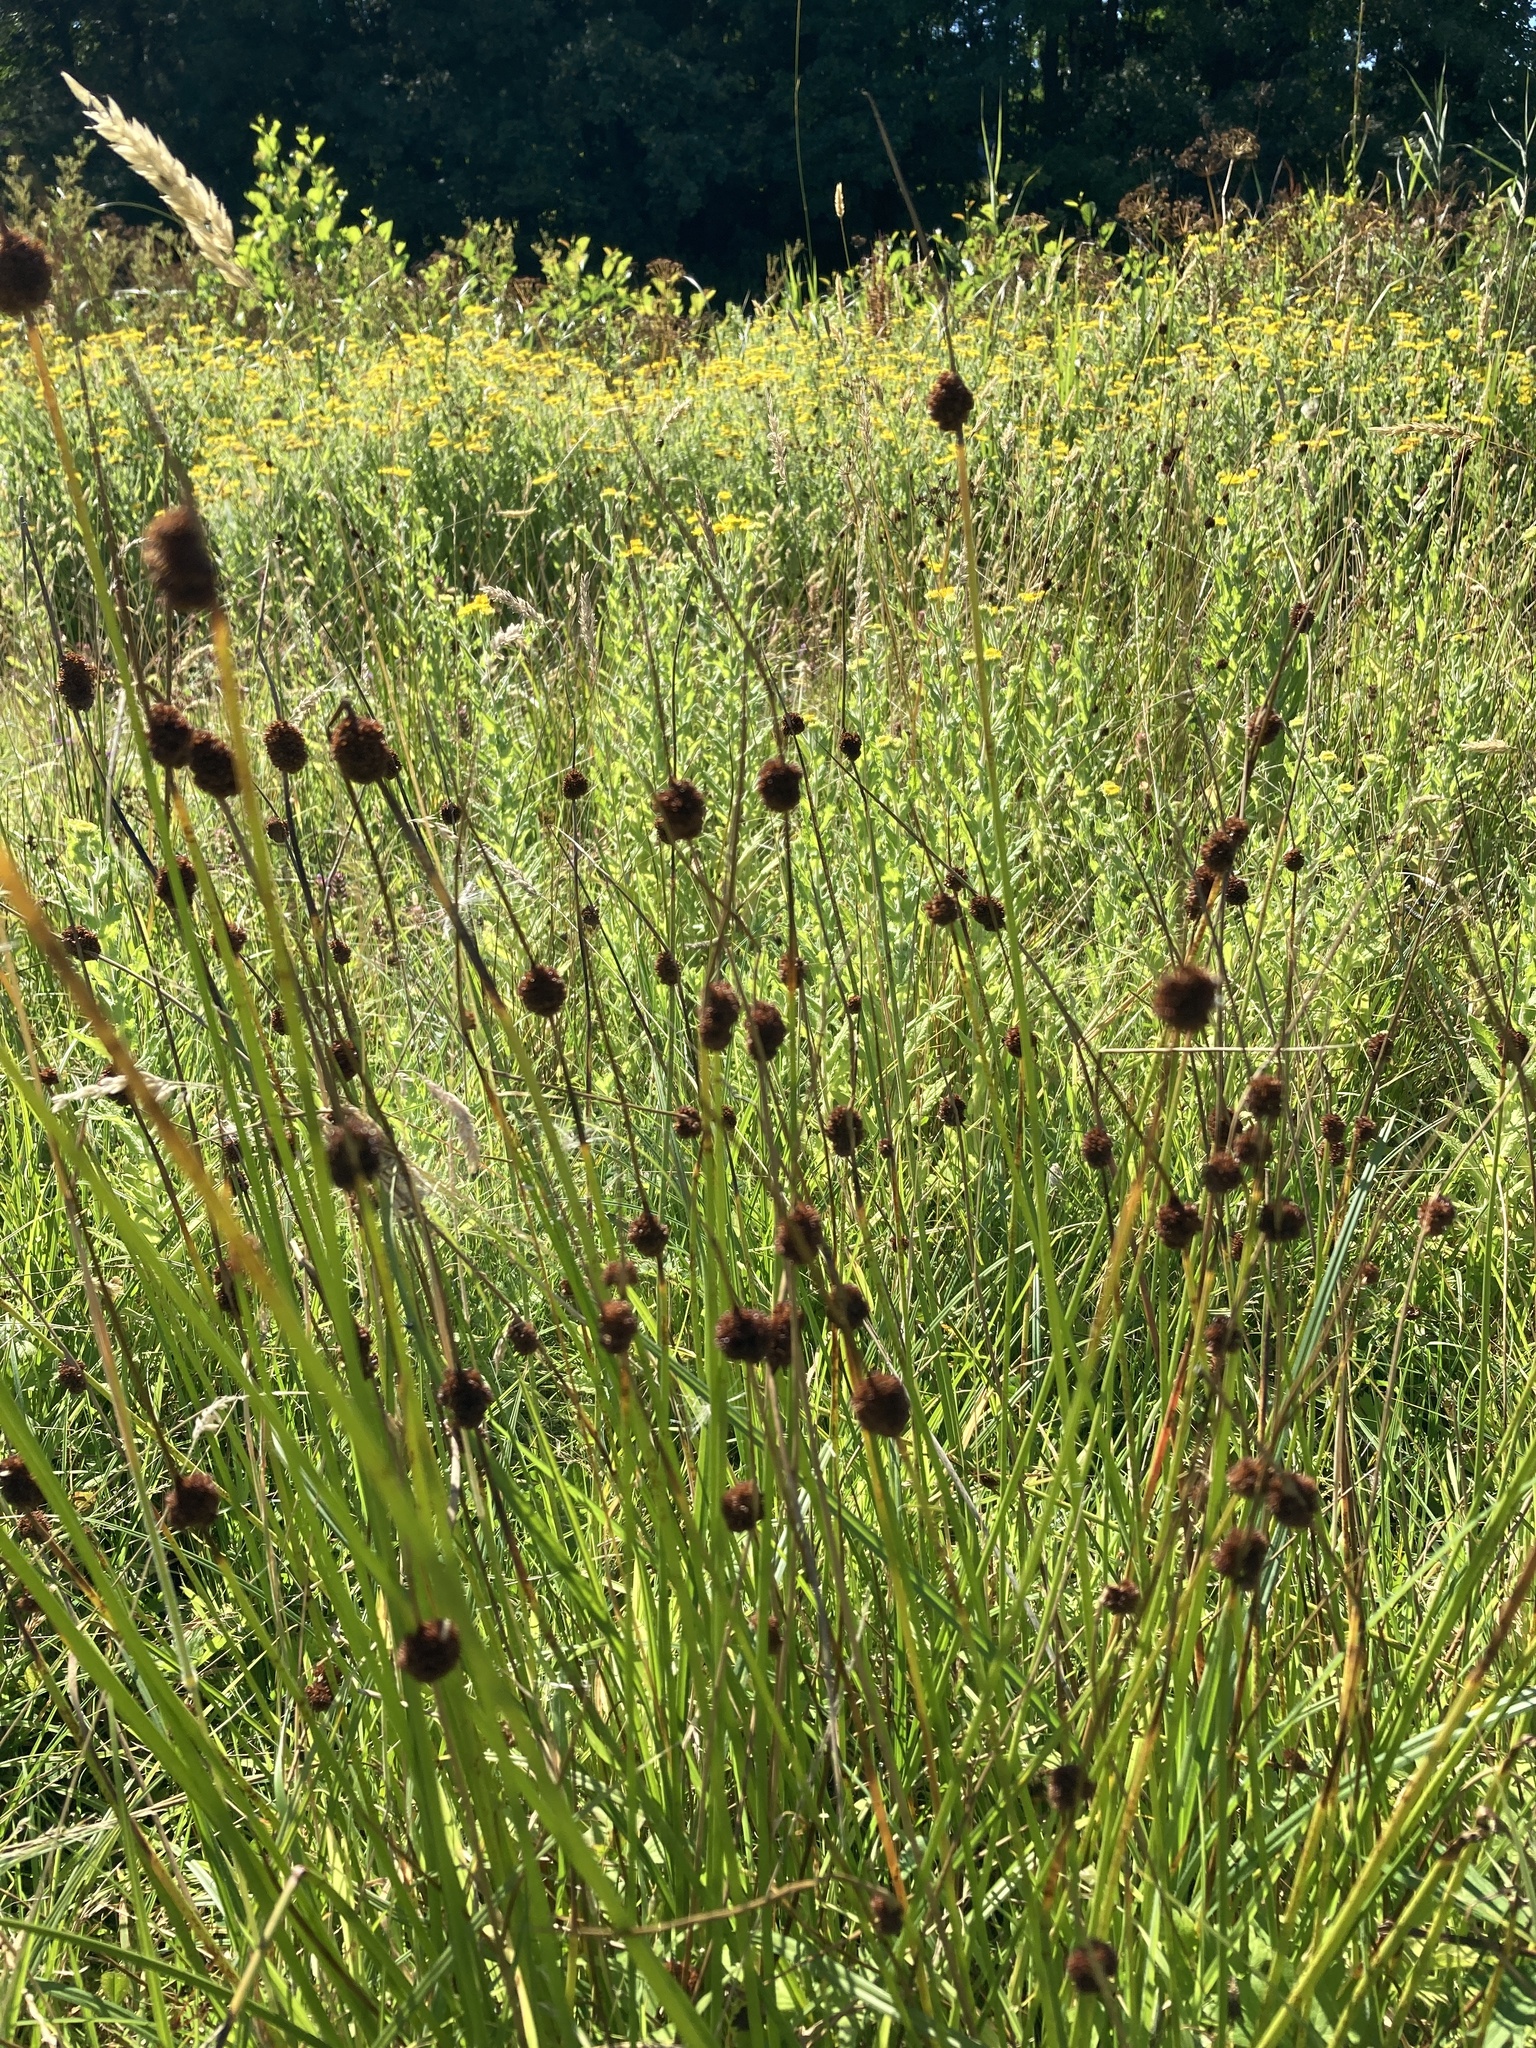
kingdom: Plantae
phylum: Tracheophyta
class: Liliopsida
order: Poales
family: Juncaceae
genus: Juncus
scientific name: Juncus conglomeratus
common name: Compact rush
